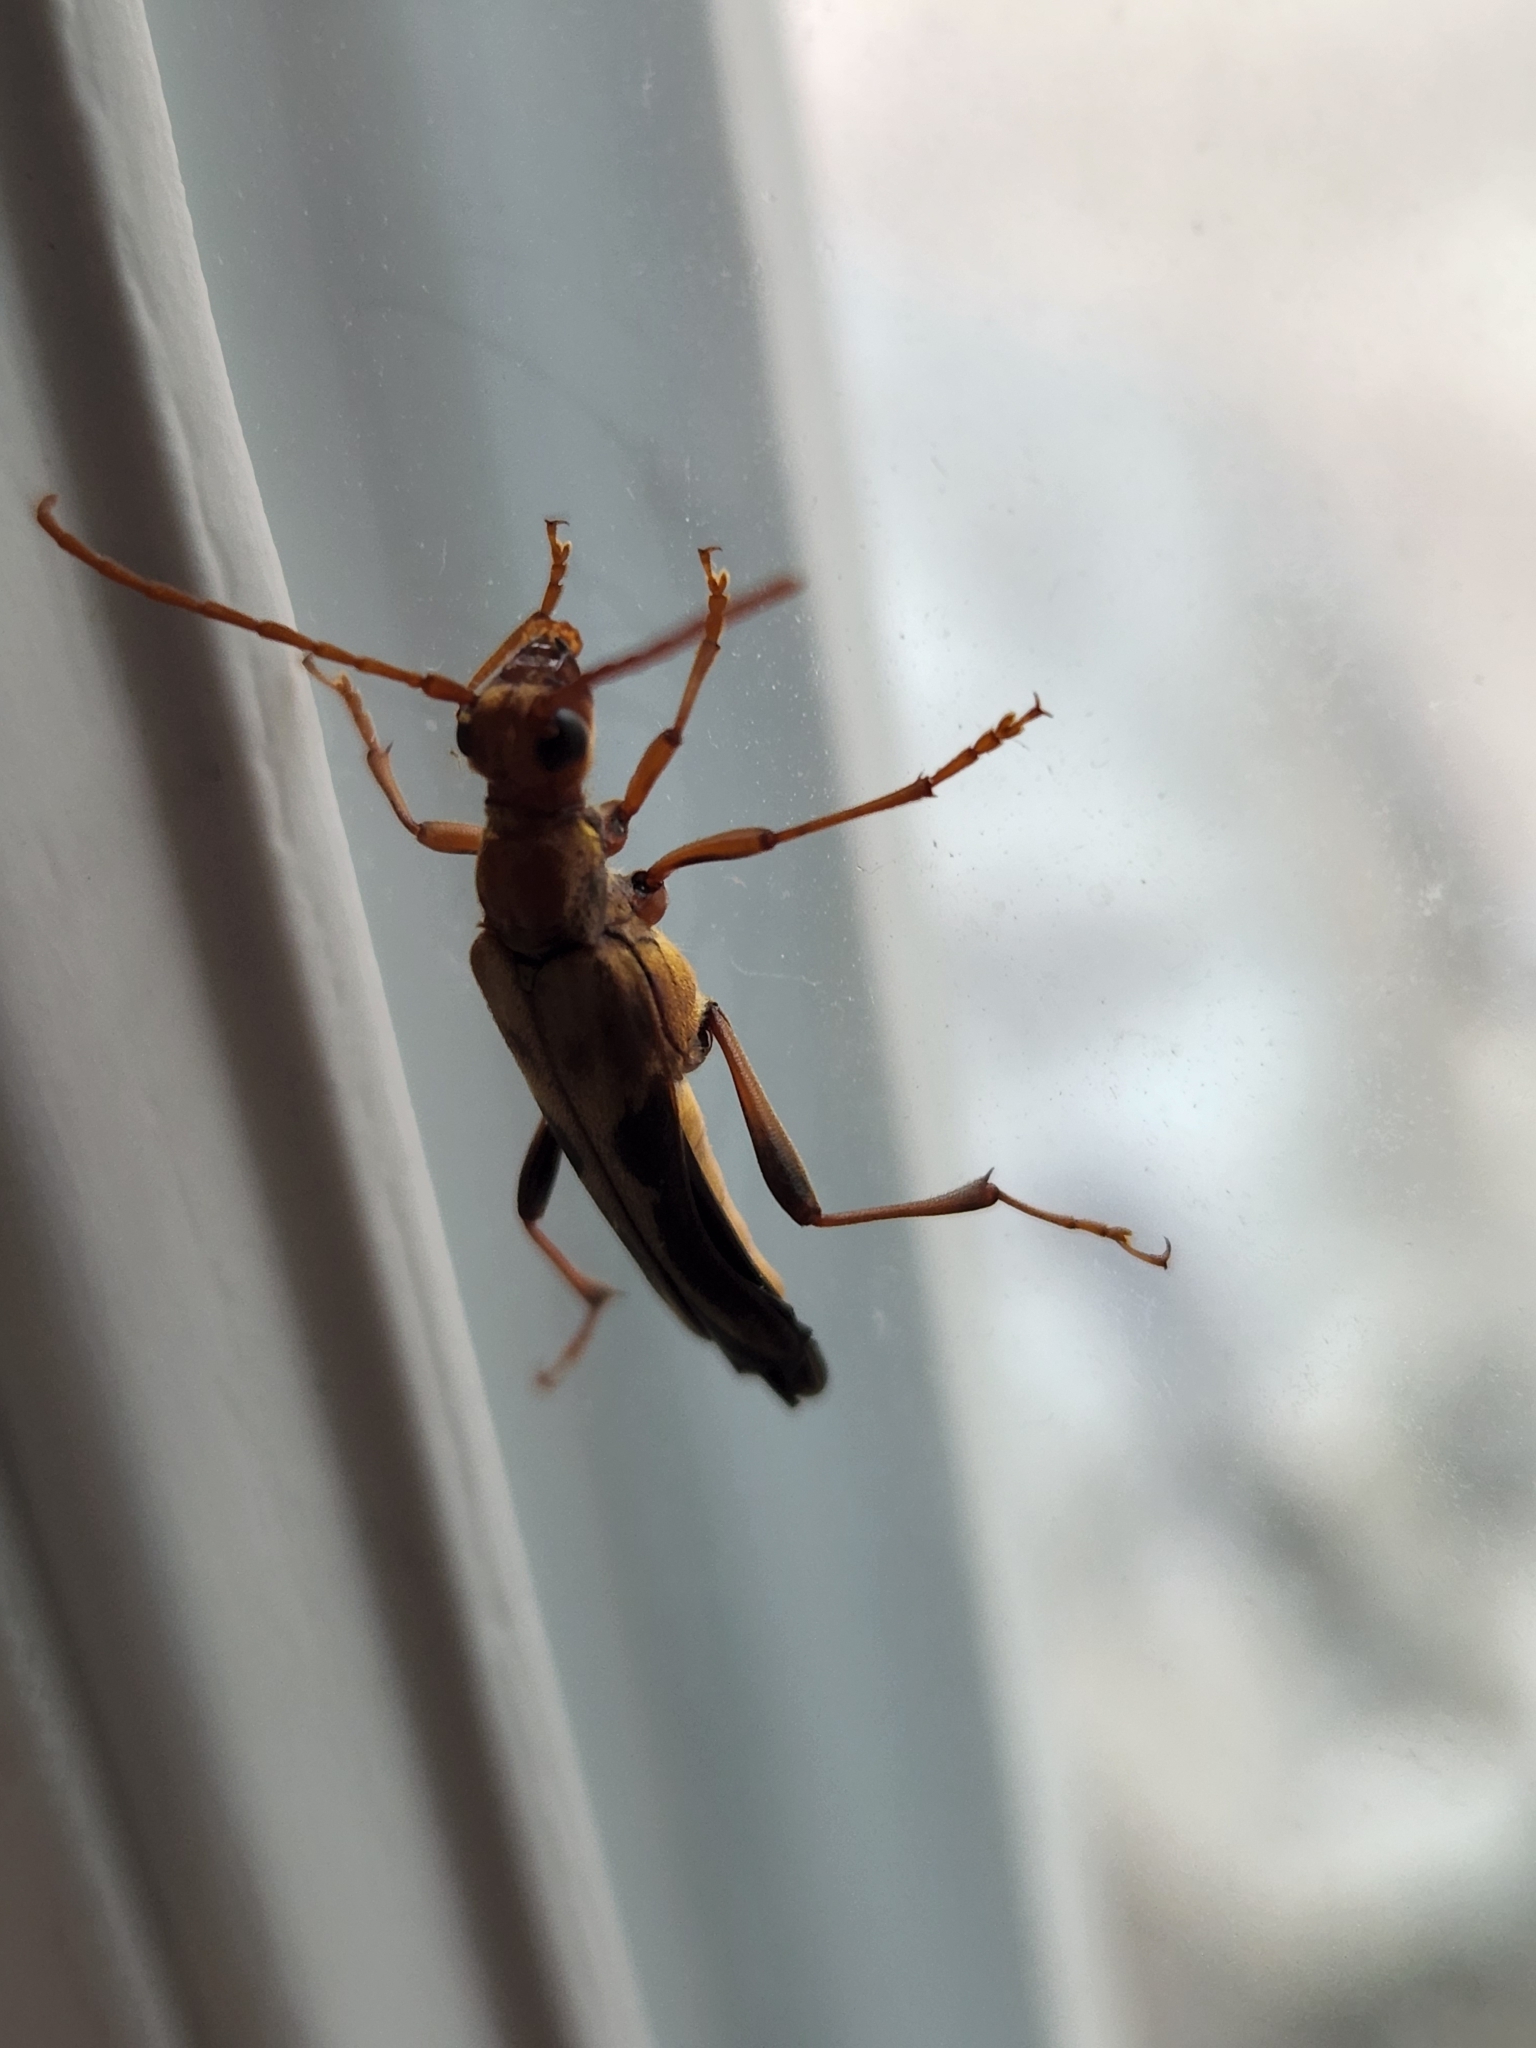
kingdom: Animalia
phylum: Arthropoda
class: Insecta
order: Coleoptera
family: Cerambycidae
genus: Bellamira
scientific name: Bellamira scalaris
